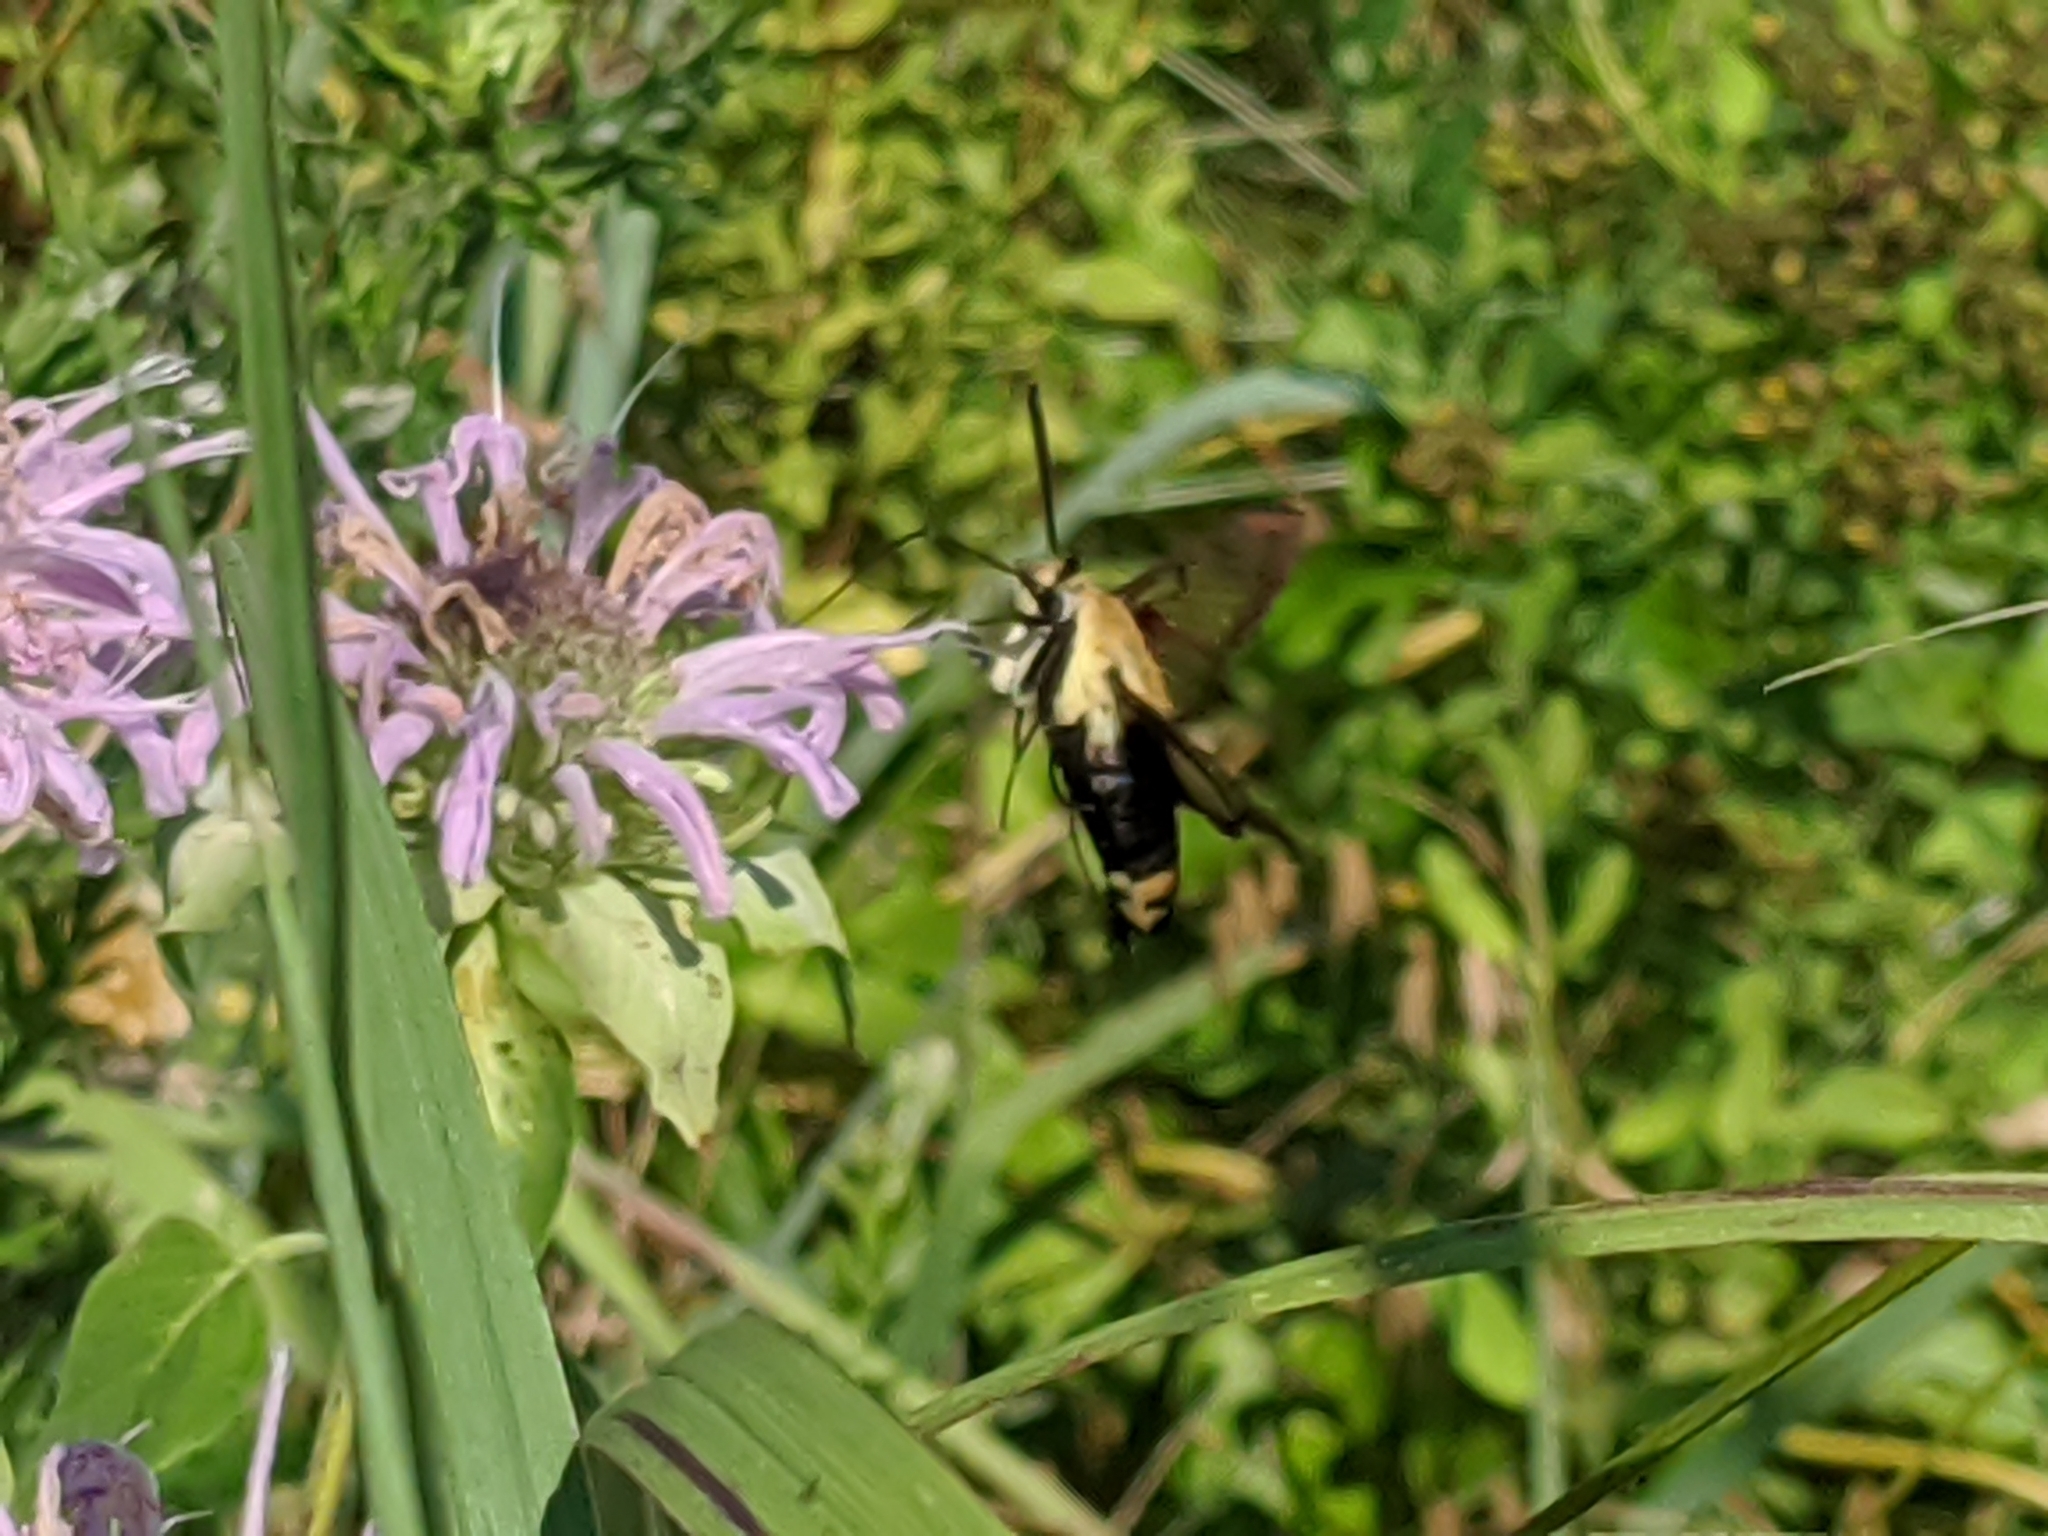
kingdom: Animalia
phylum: Arthropoda
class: Insecta
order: Lepidoptera
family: Sphingidae
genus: Hemaris
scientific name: Hemaris diffinis
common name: Bumblebee moth
